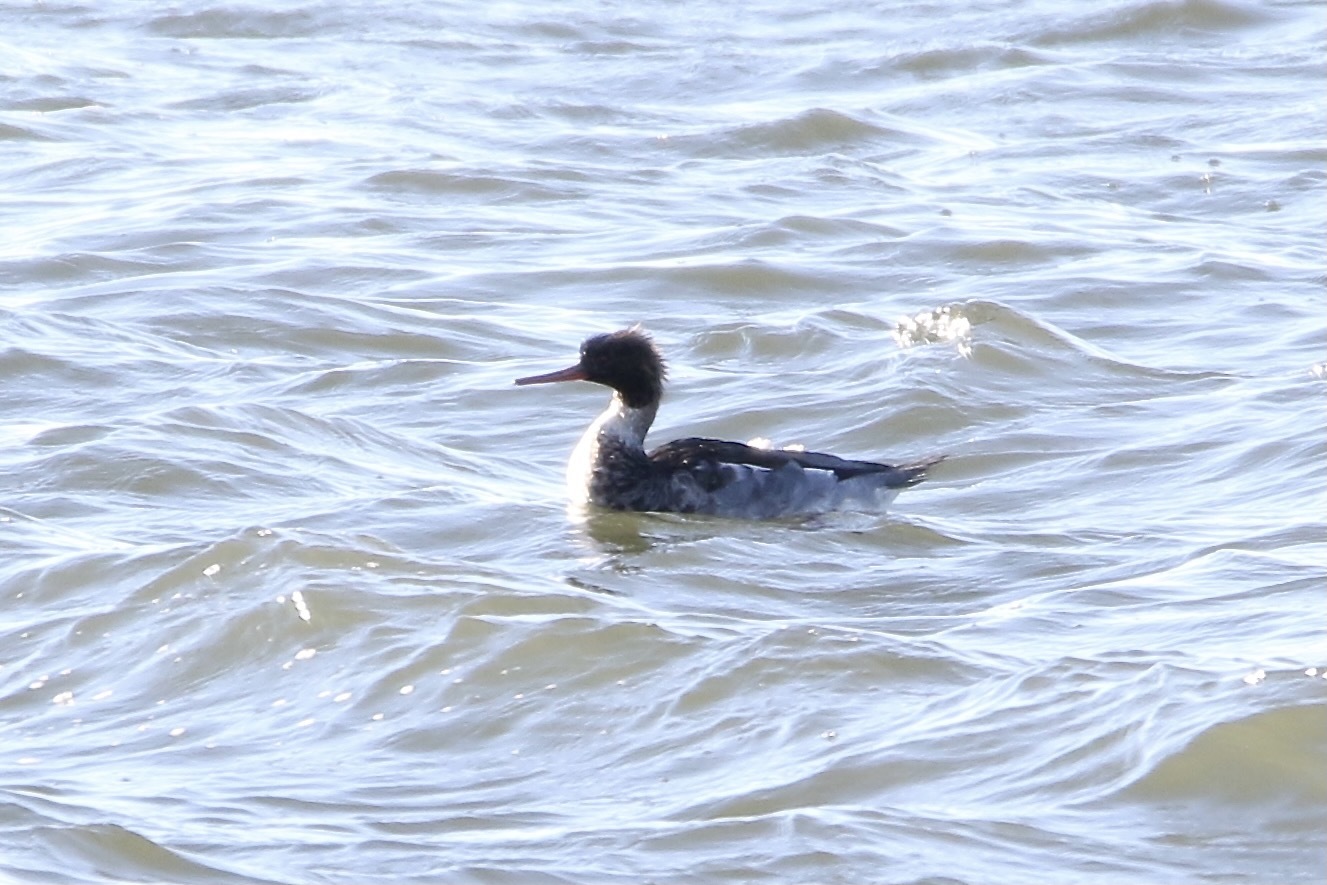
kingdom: Animalia
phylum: Chordata
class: Aves
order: Anseriformes
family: Anatidae
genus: Mergus
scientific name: Mergus serrator
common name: Red-breasted merganser
